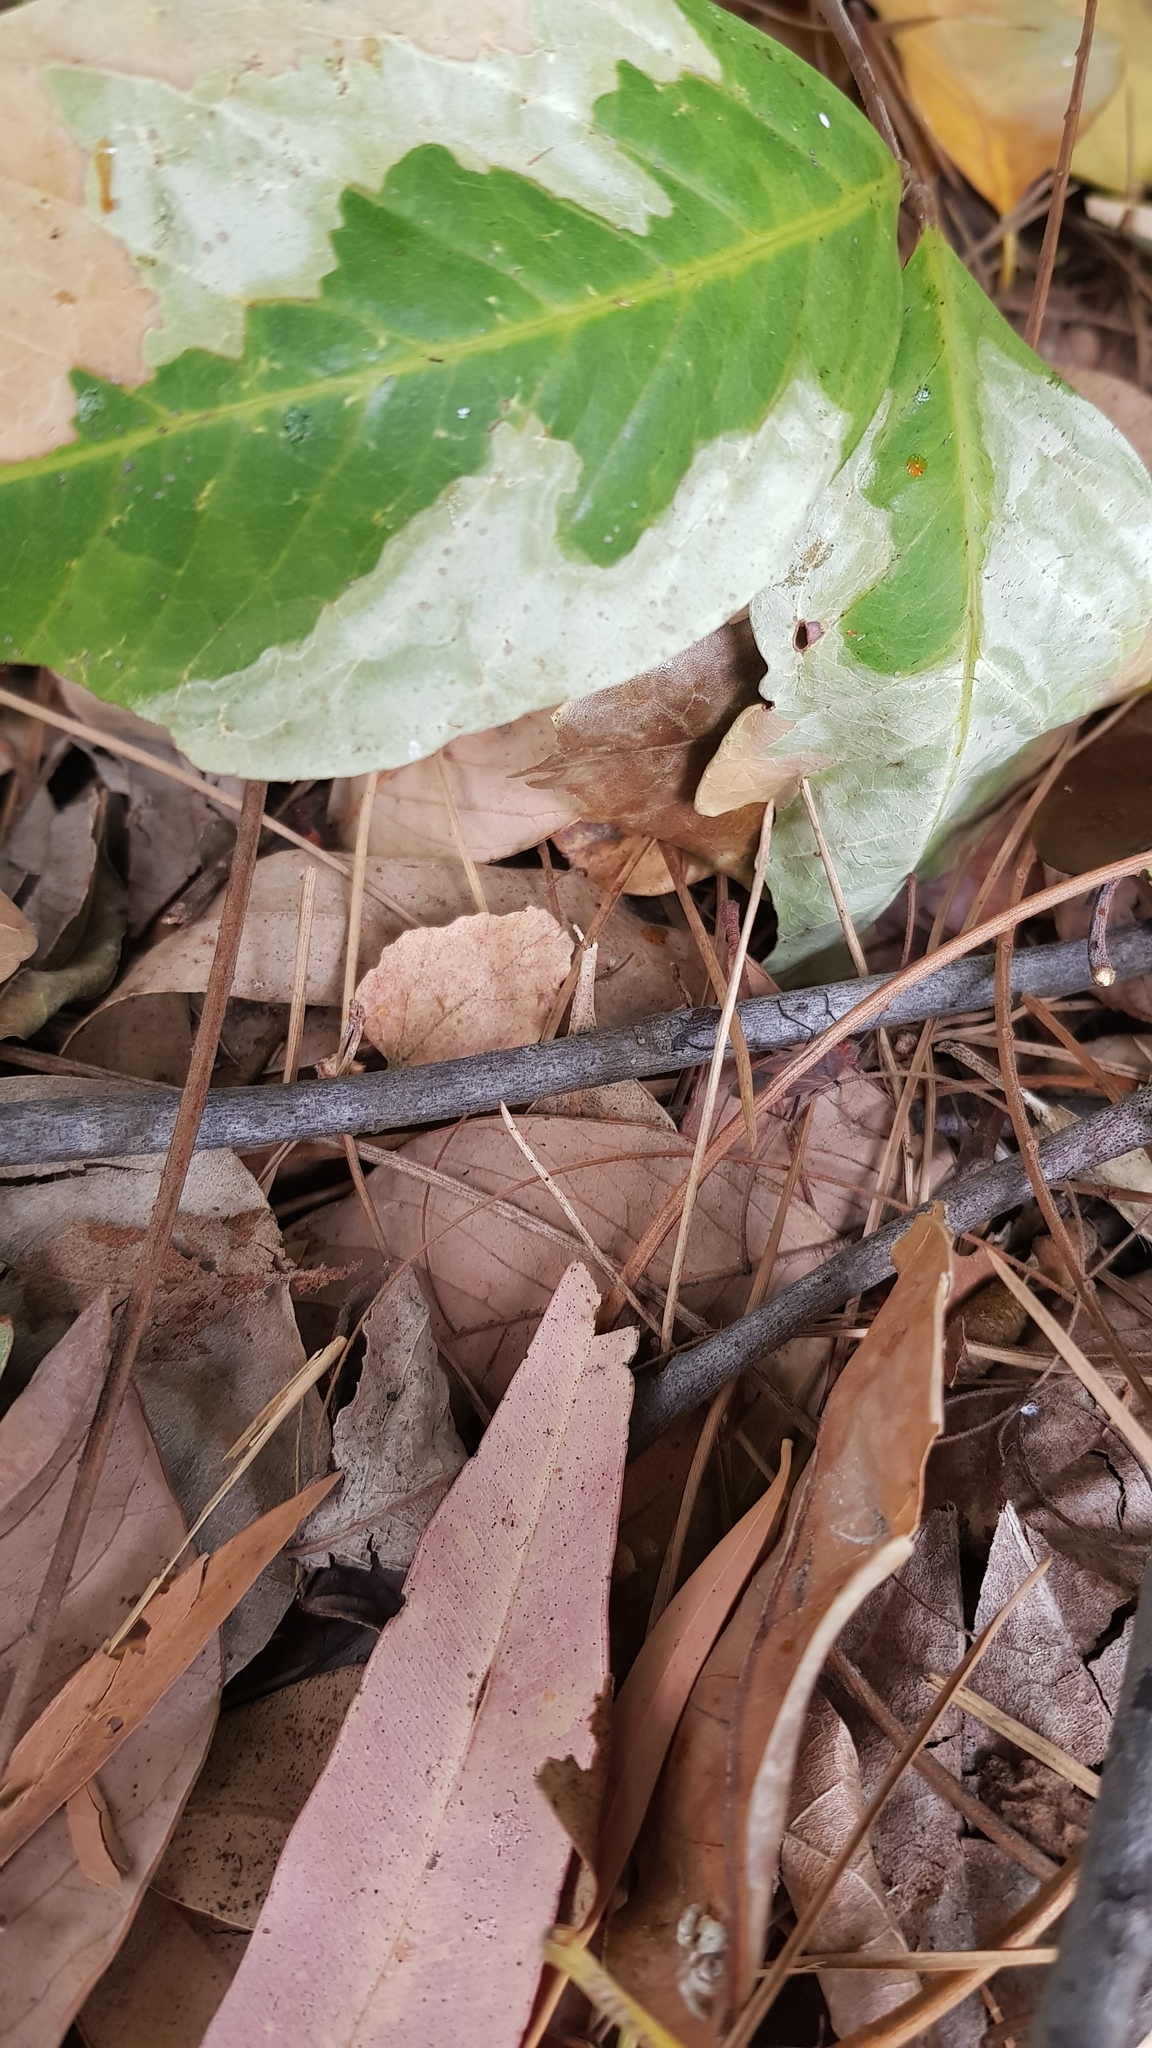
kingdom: Animalia
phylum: Arthropoda
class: Insecta
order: Hemiptera
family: Rhopalidae
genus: Leptocoris
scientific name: Leptocoris tagalicus
